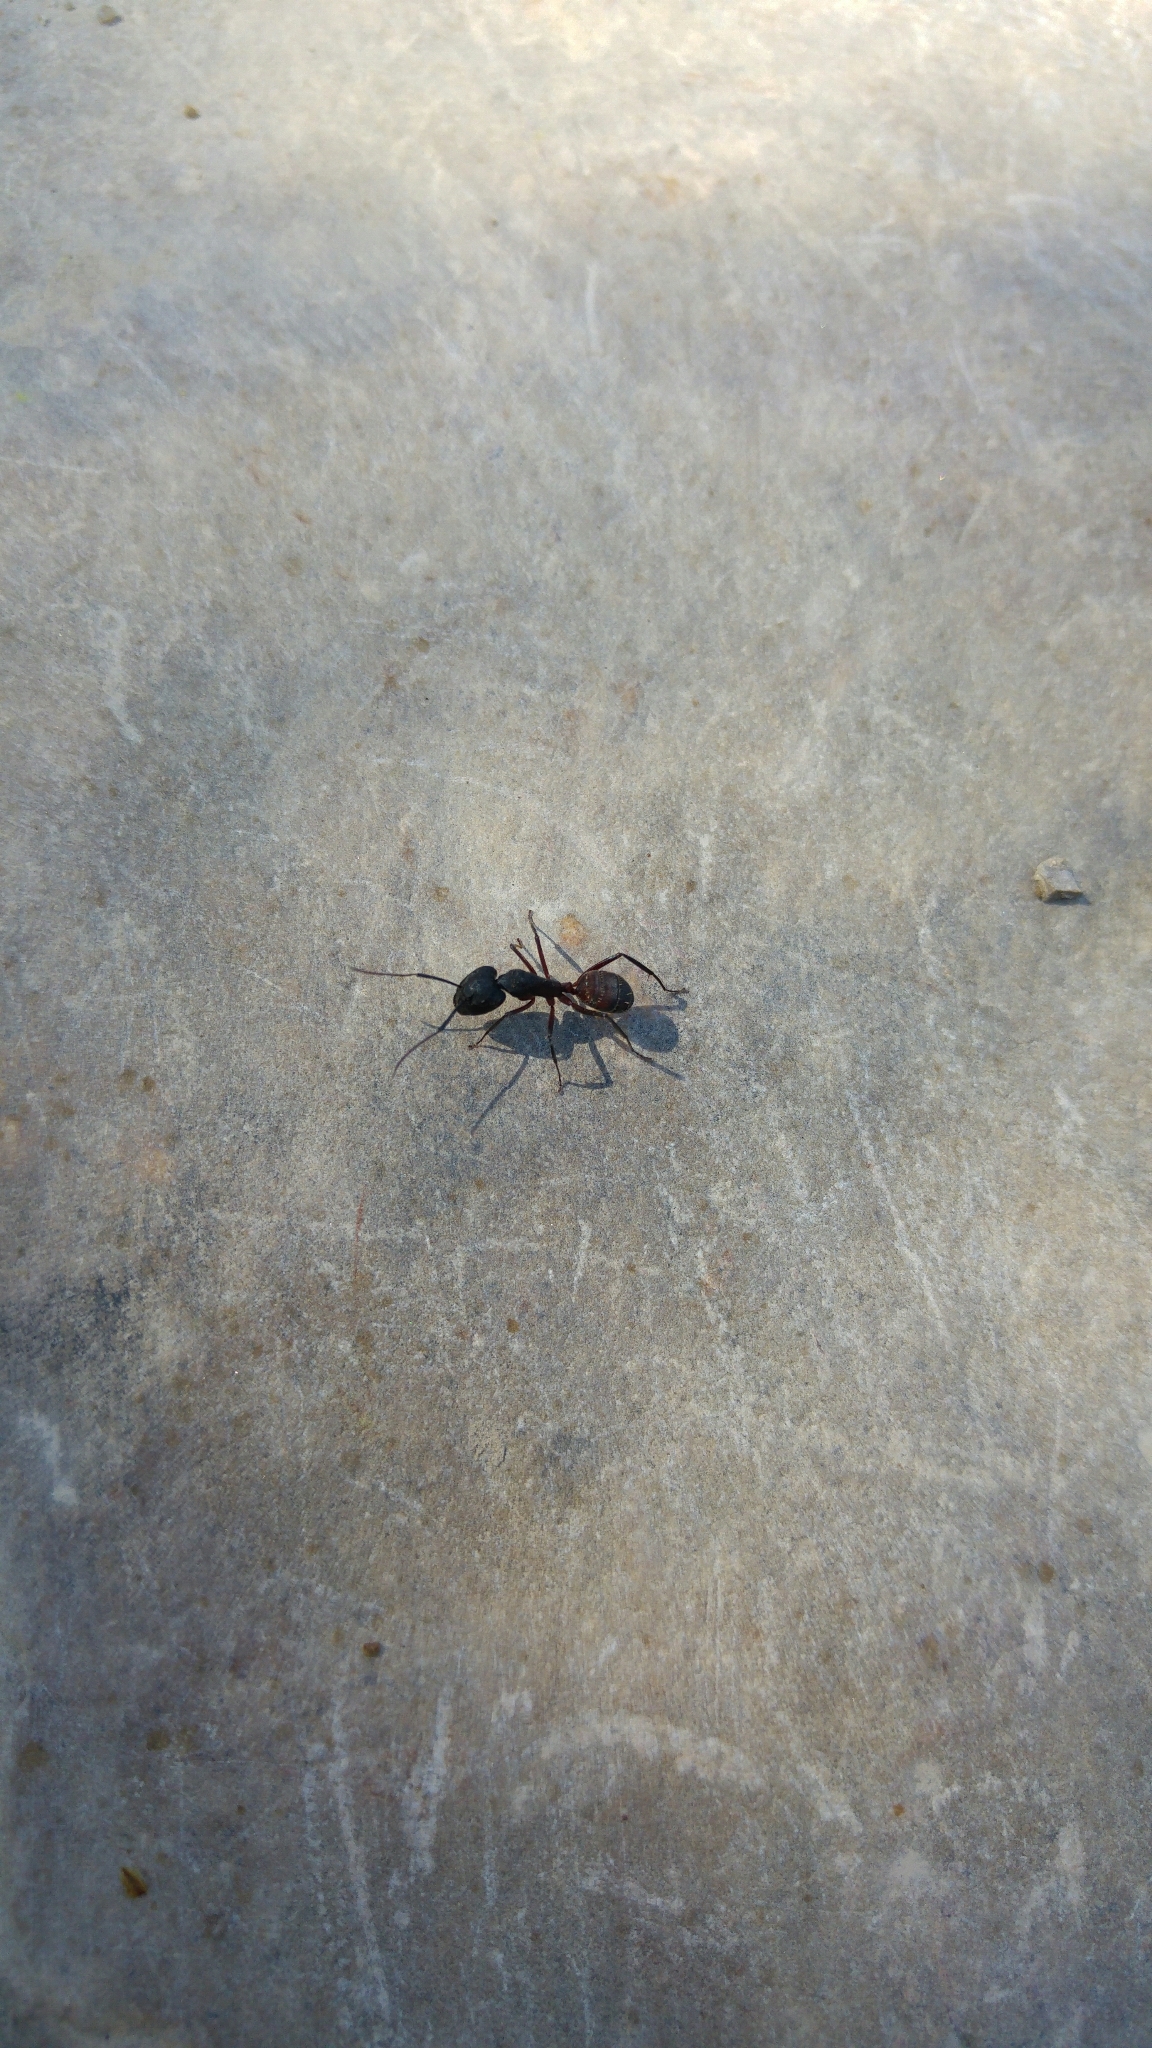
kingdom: Animalia
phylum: Arthropoda
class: Insecta
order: Hymenoptera
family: Formicidae
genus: Camponotus
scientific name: Camponotus cruentatus
